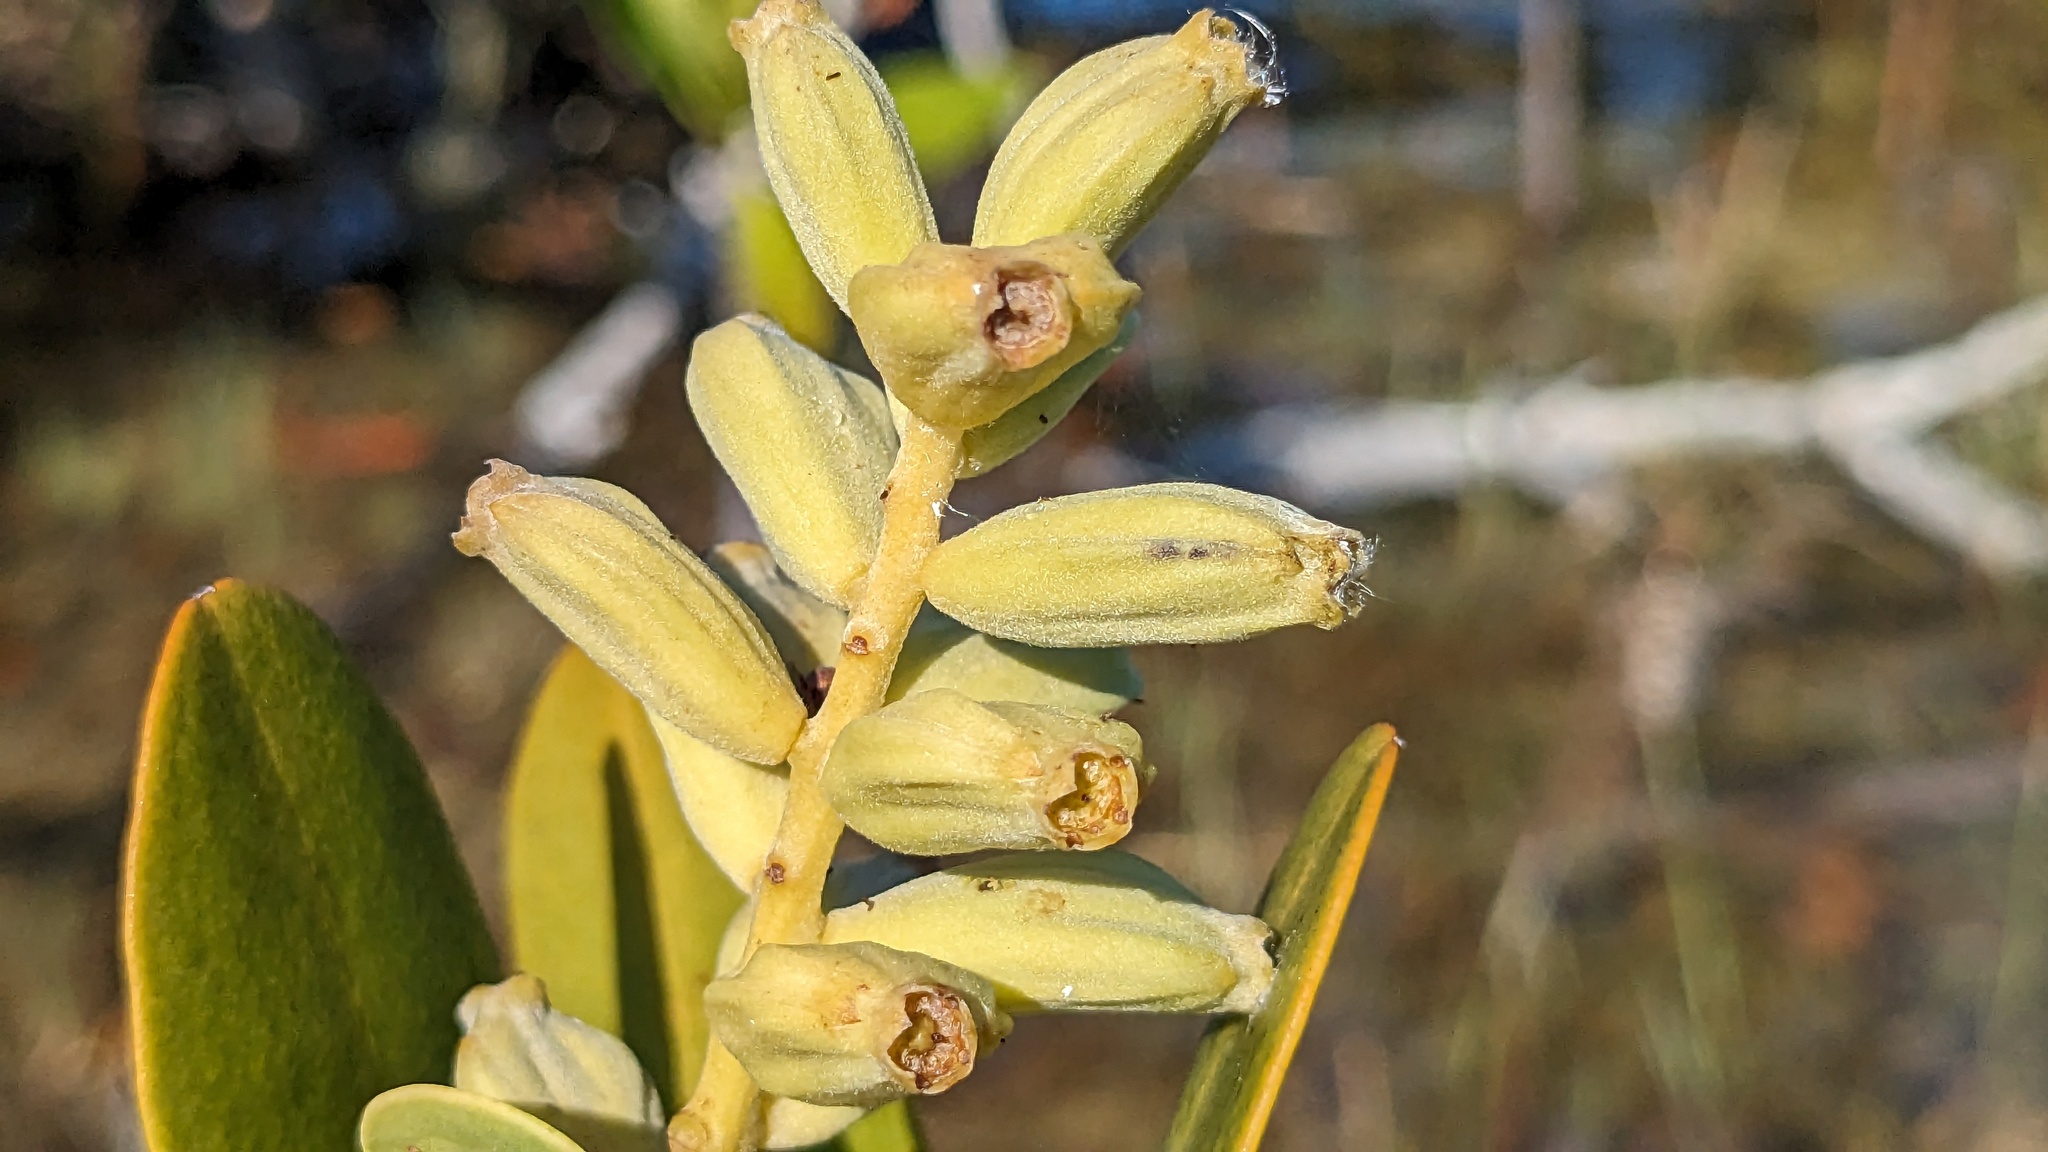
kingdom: Plantae
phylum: Tracheophyta
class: Magnoliopsida
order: Myrtales
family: Combretaceae
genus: Laguncularia
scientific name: Laguncularia racemosa
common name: White mangrove
